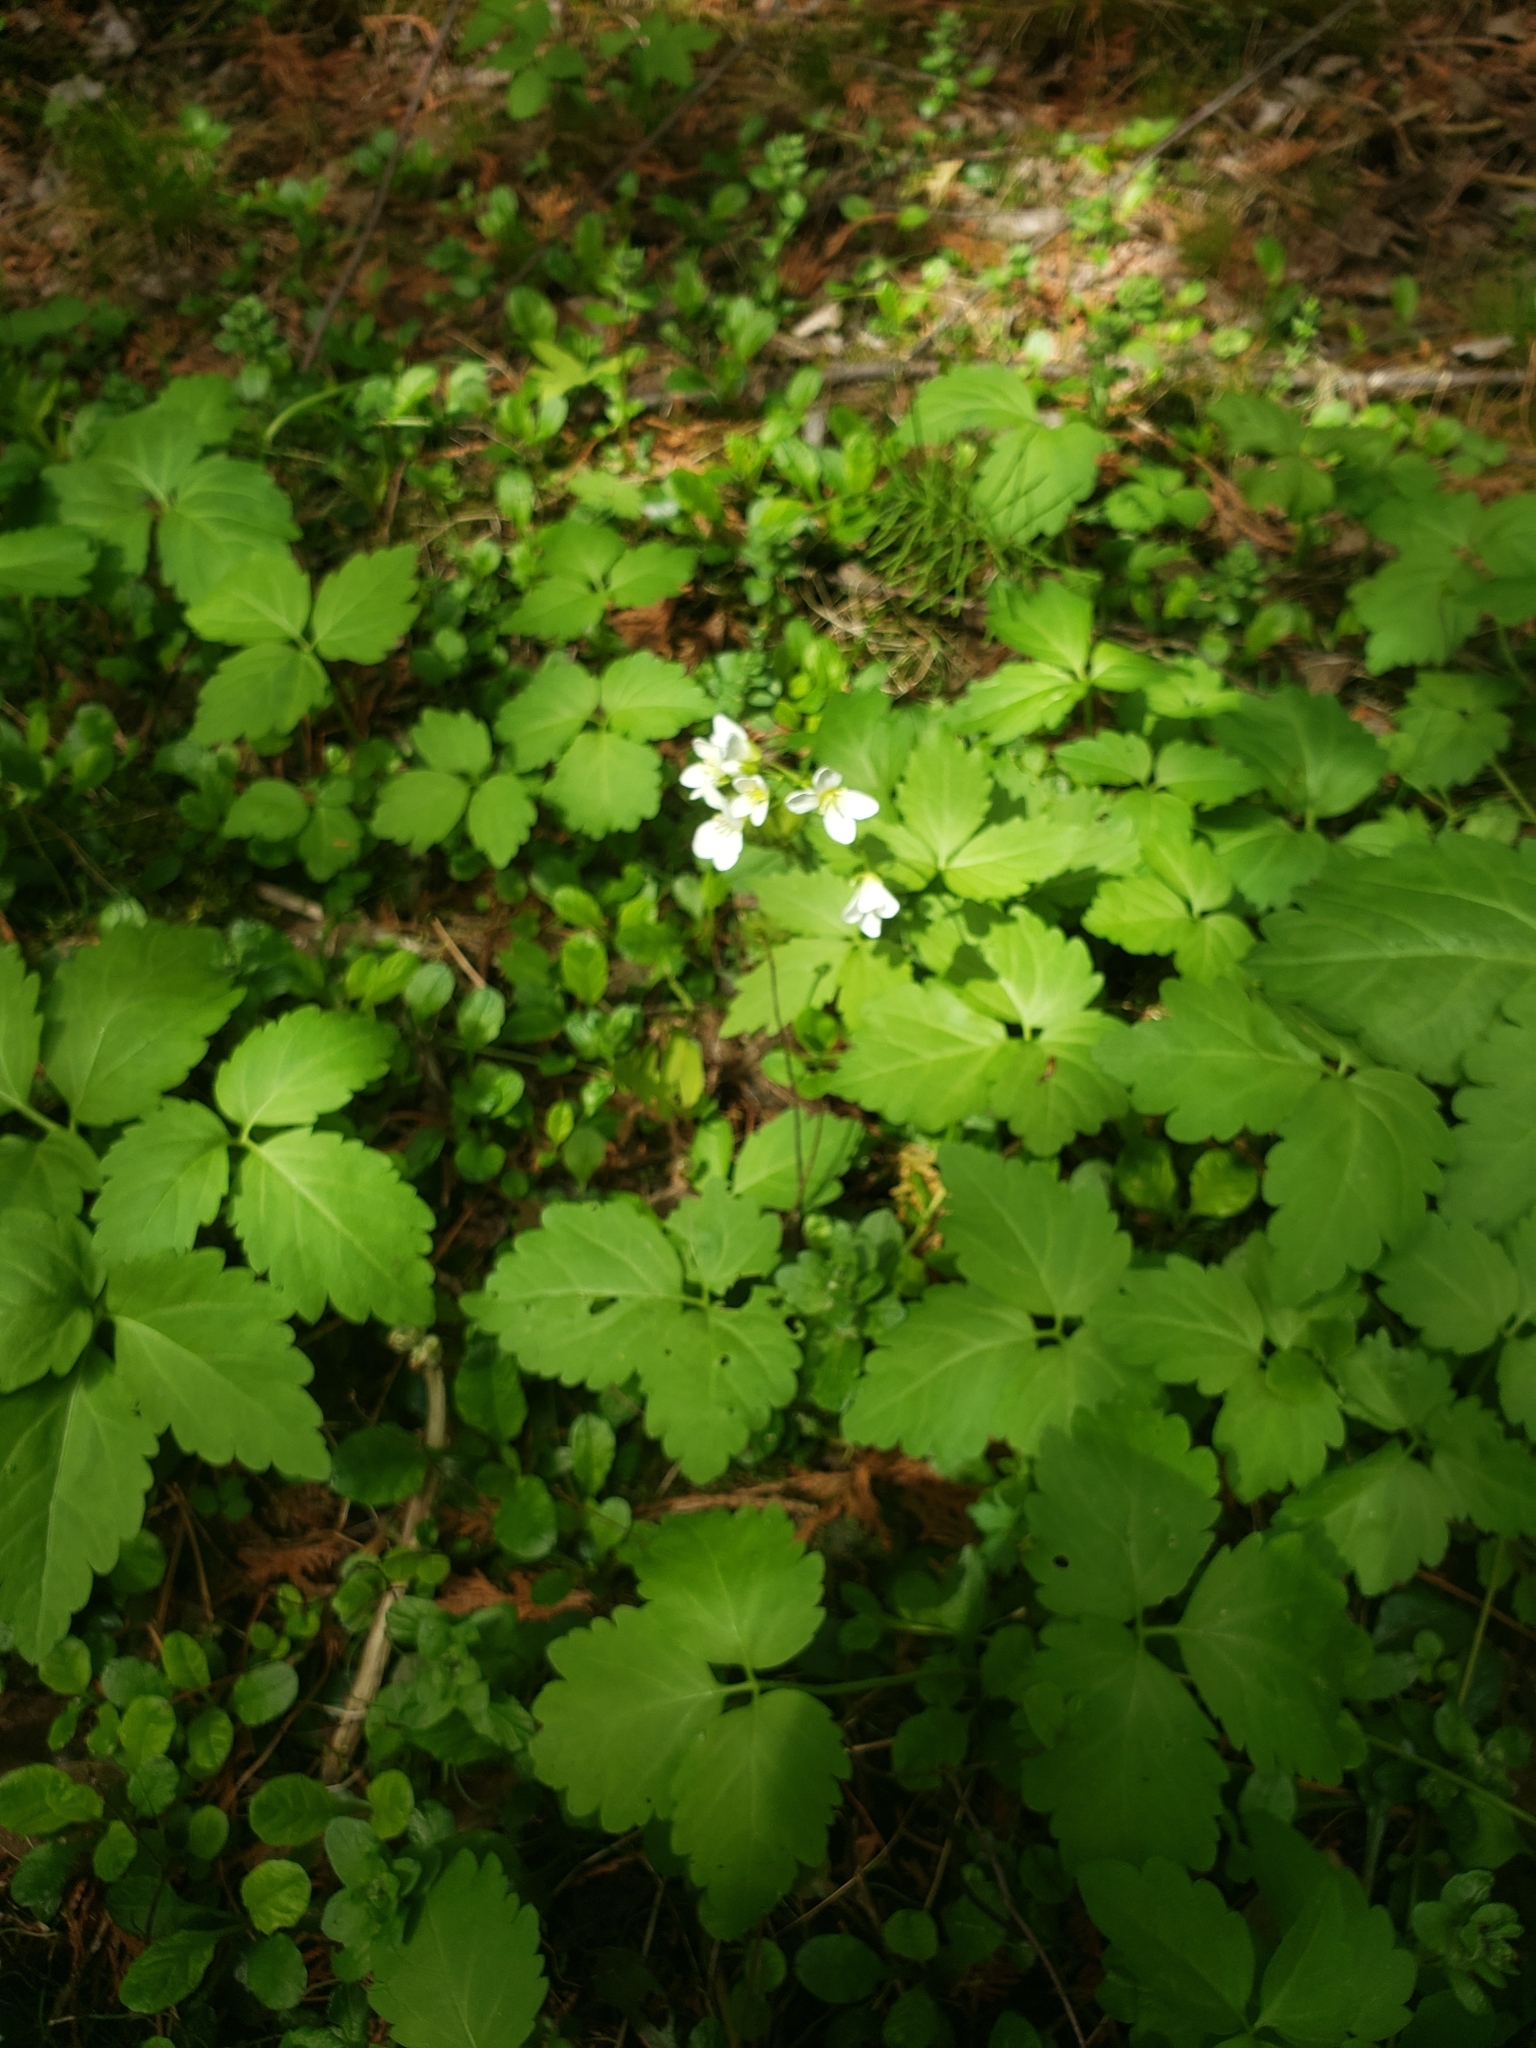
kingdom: Plantae
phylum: Tracheophyta
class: Magnoliopsida
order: Brassicales
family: Brassicaceae
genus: Cardamine
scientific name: Cardamine diphylla
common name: Broad-leaved toothwort
